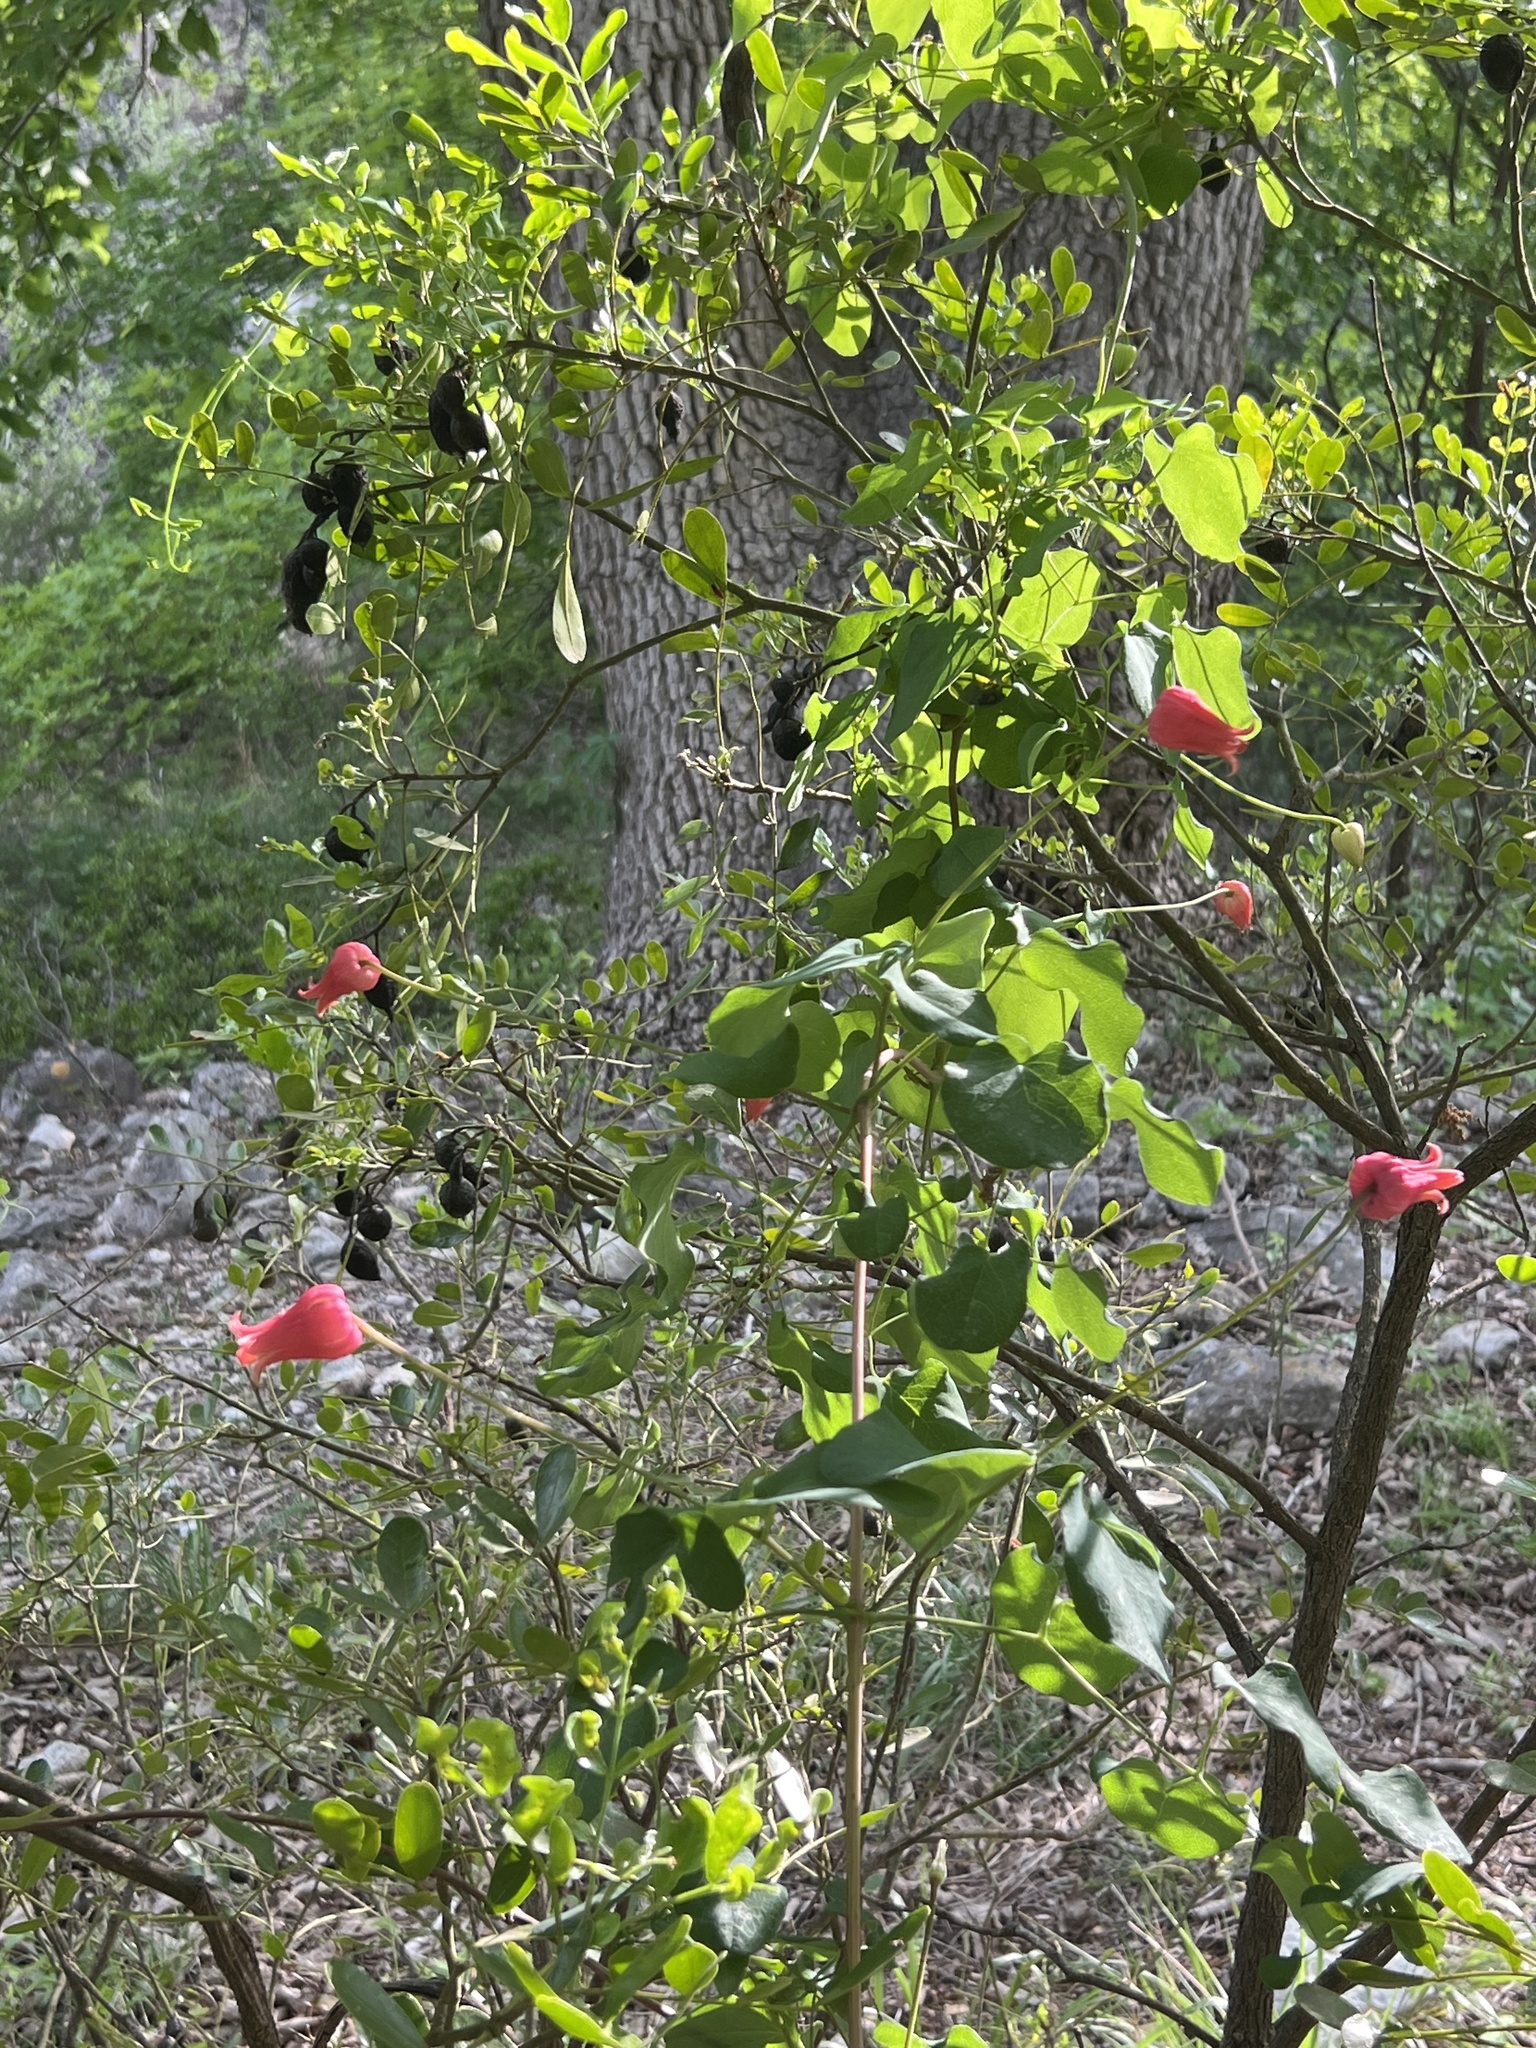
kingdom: Plantae
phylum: Tracheophyta
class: Magnoliopsida
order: Ranunculales
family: Ranunculaceae
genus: Clematis
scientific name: Clematis texensis
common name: Crimson clematis
